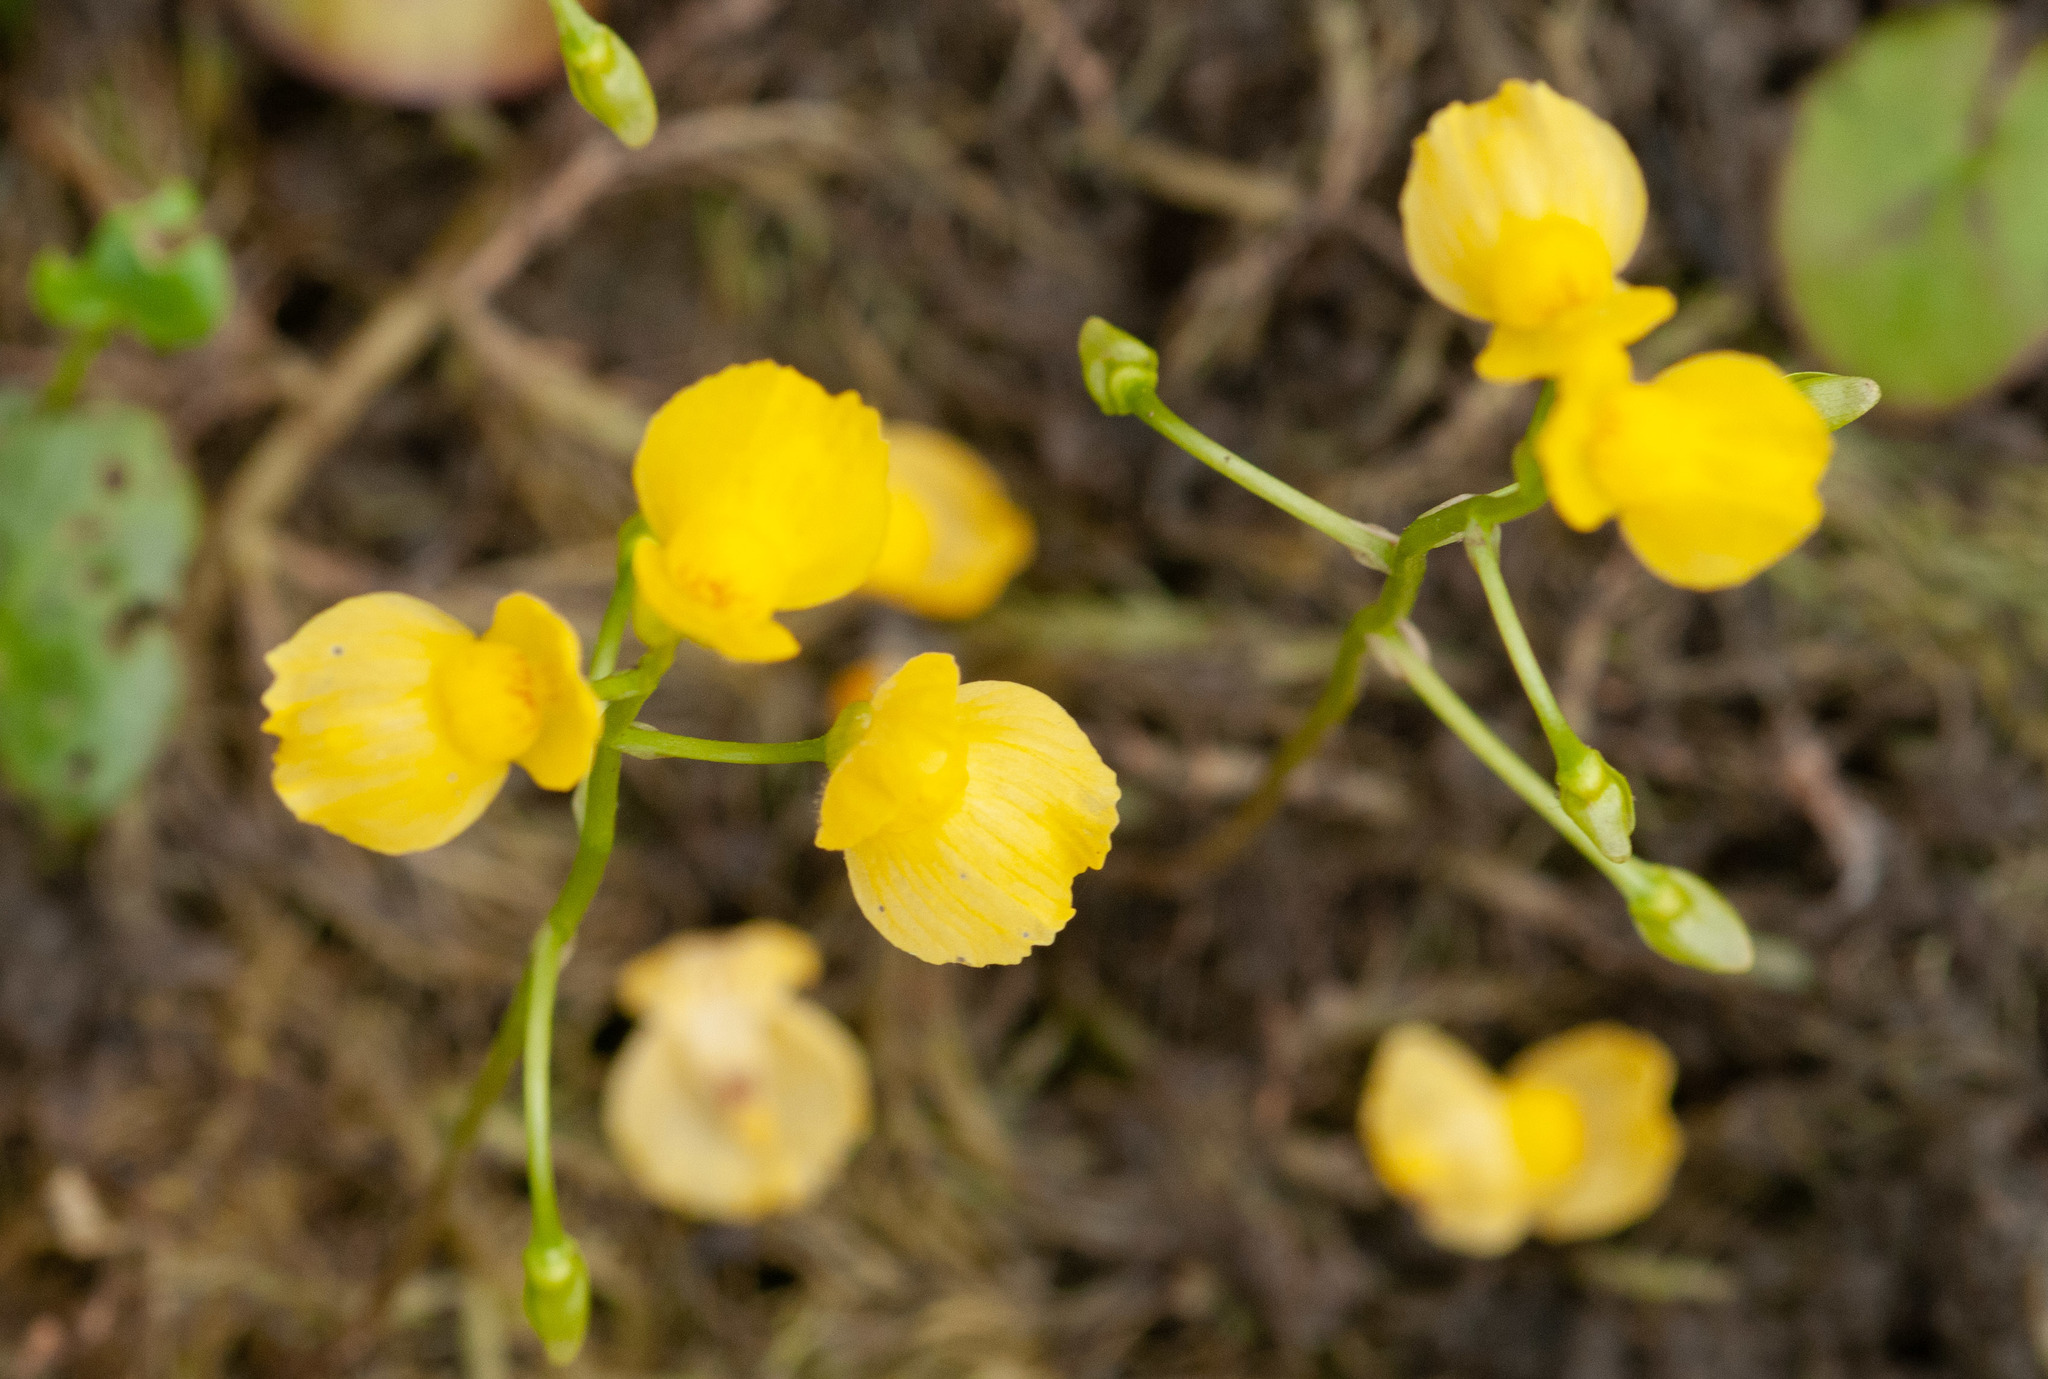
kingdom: Plantae
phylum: Tracheophyta
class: Magnoliopsida
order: Lamiales
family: Lentibulariaceae
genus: Utricularia
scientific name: Utricularia aurea
